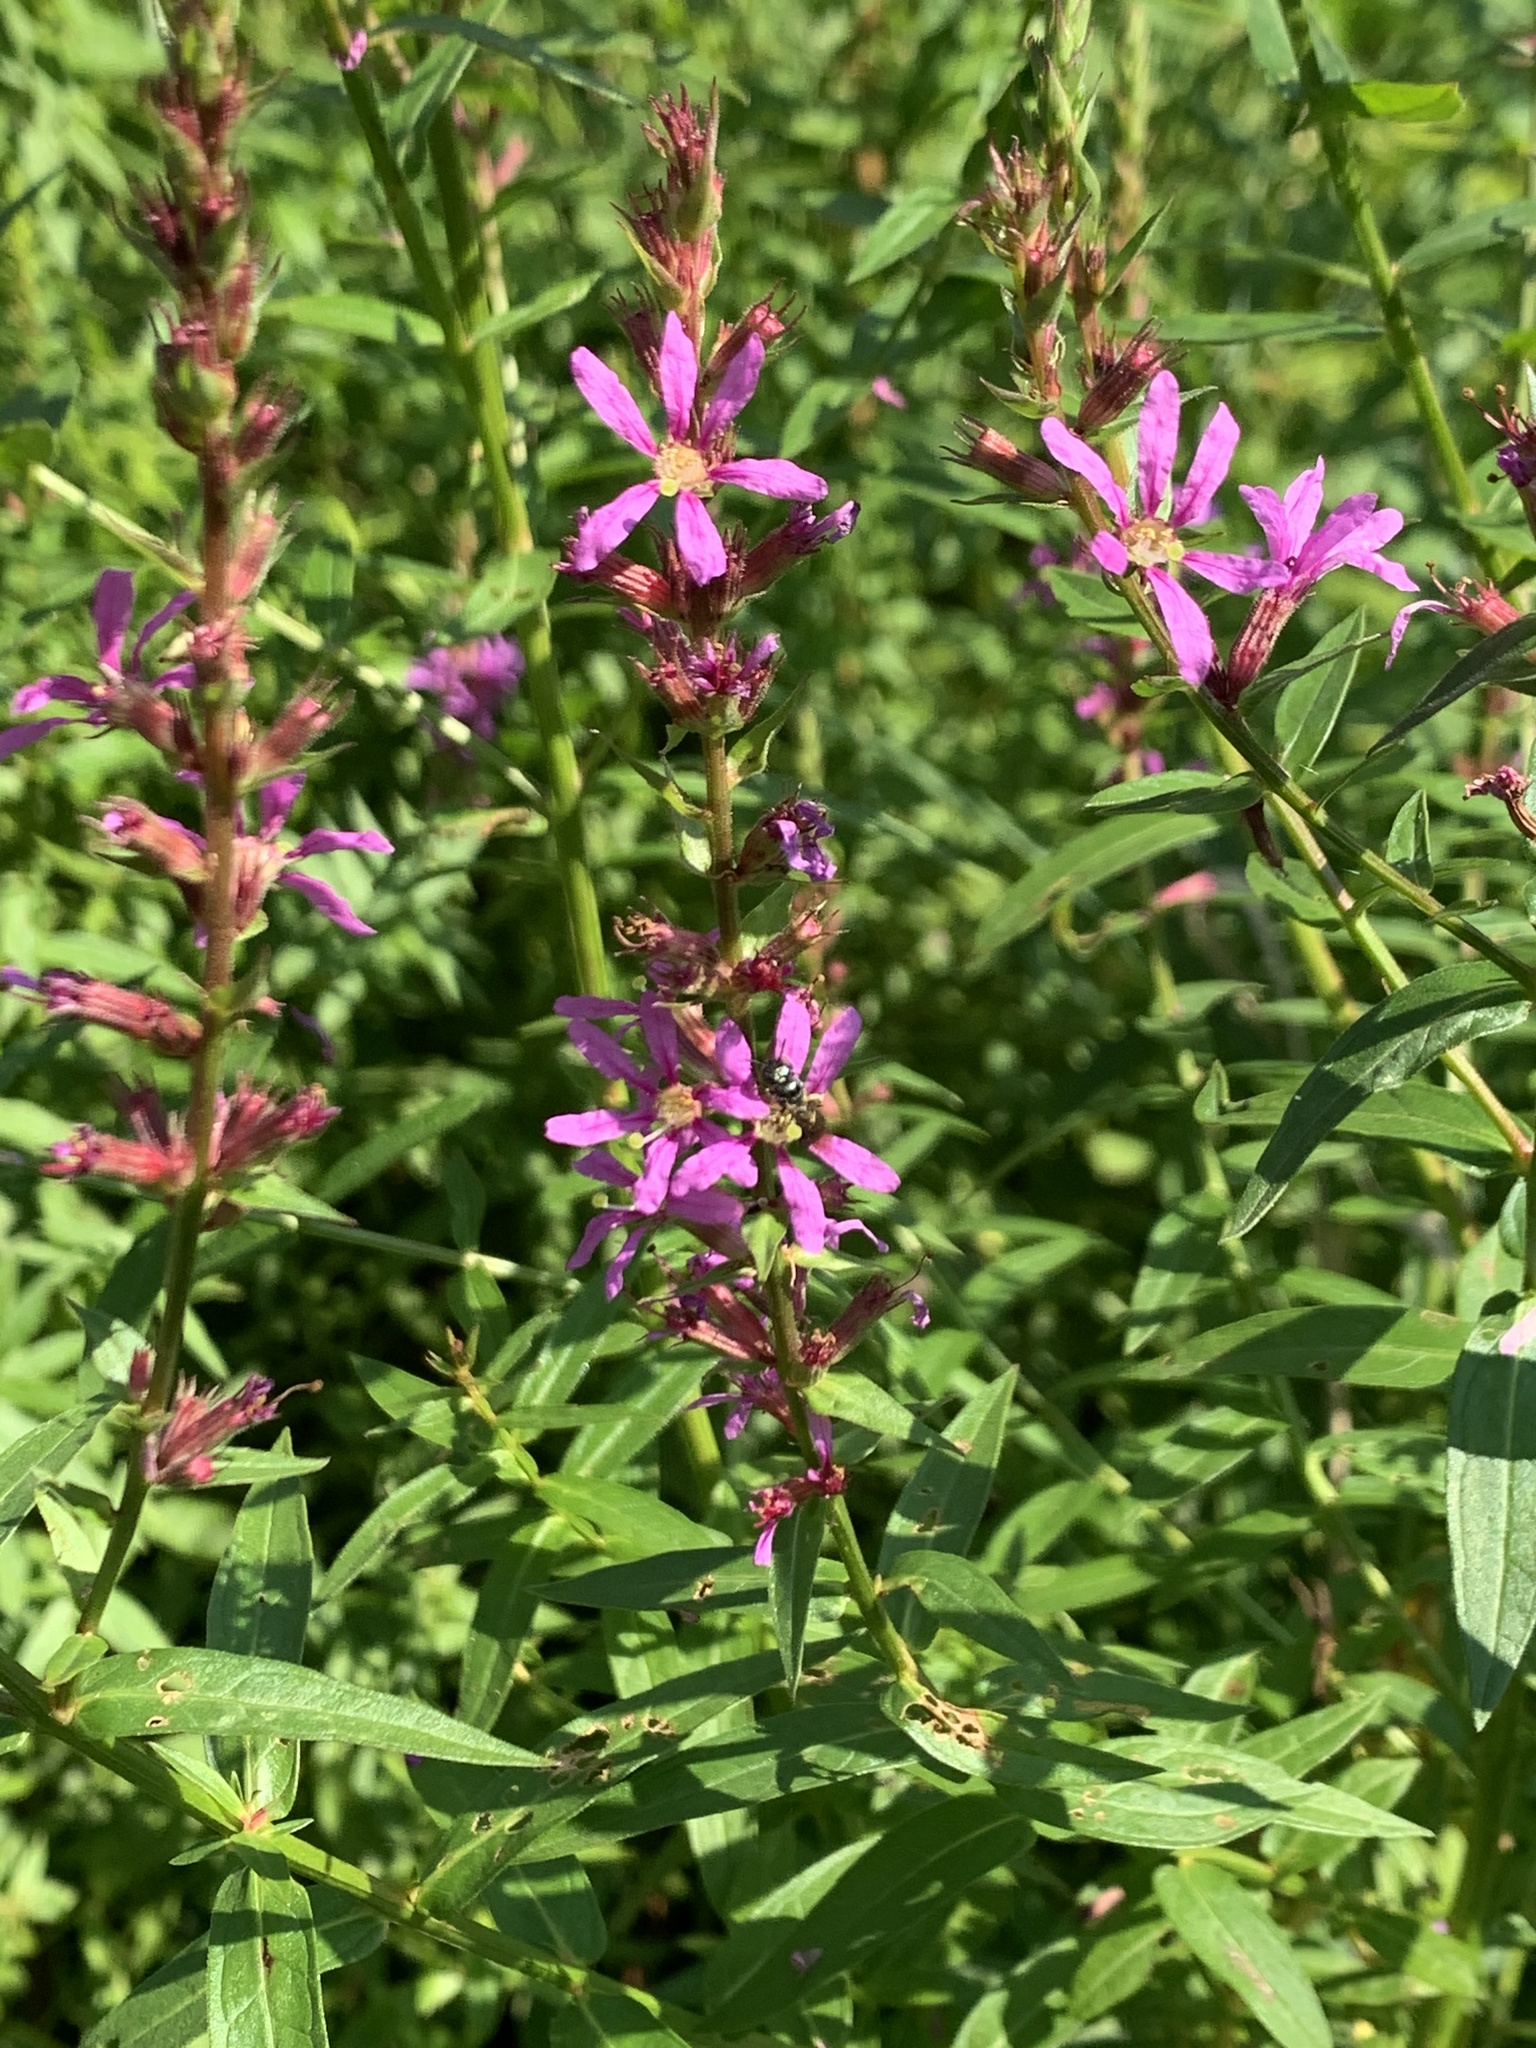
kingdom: Plantae
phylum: Tracheophyta
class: Magnoliopsida
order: Myrtales
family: Lythraceae
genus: Lythrum
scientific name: Lythrum salicaria
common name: Purple loosestrife
